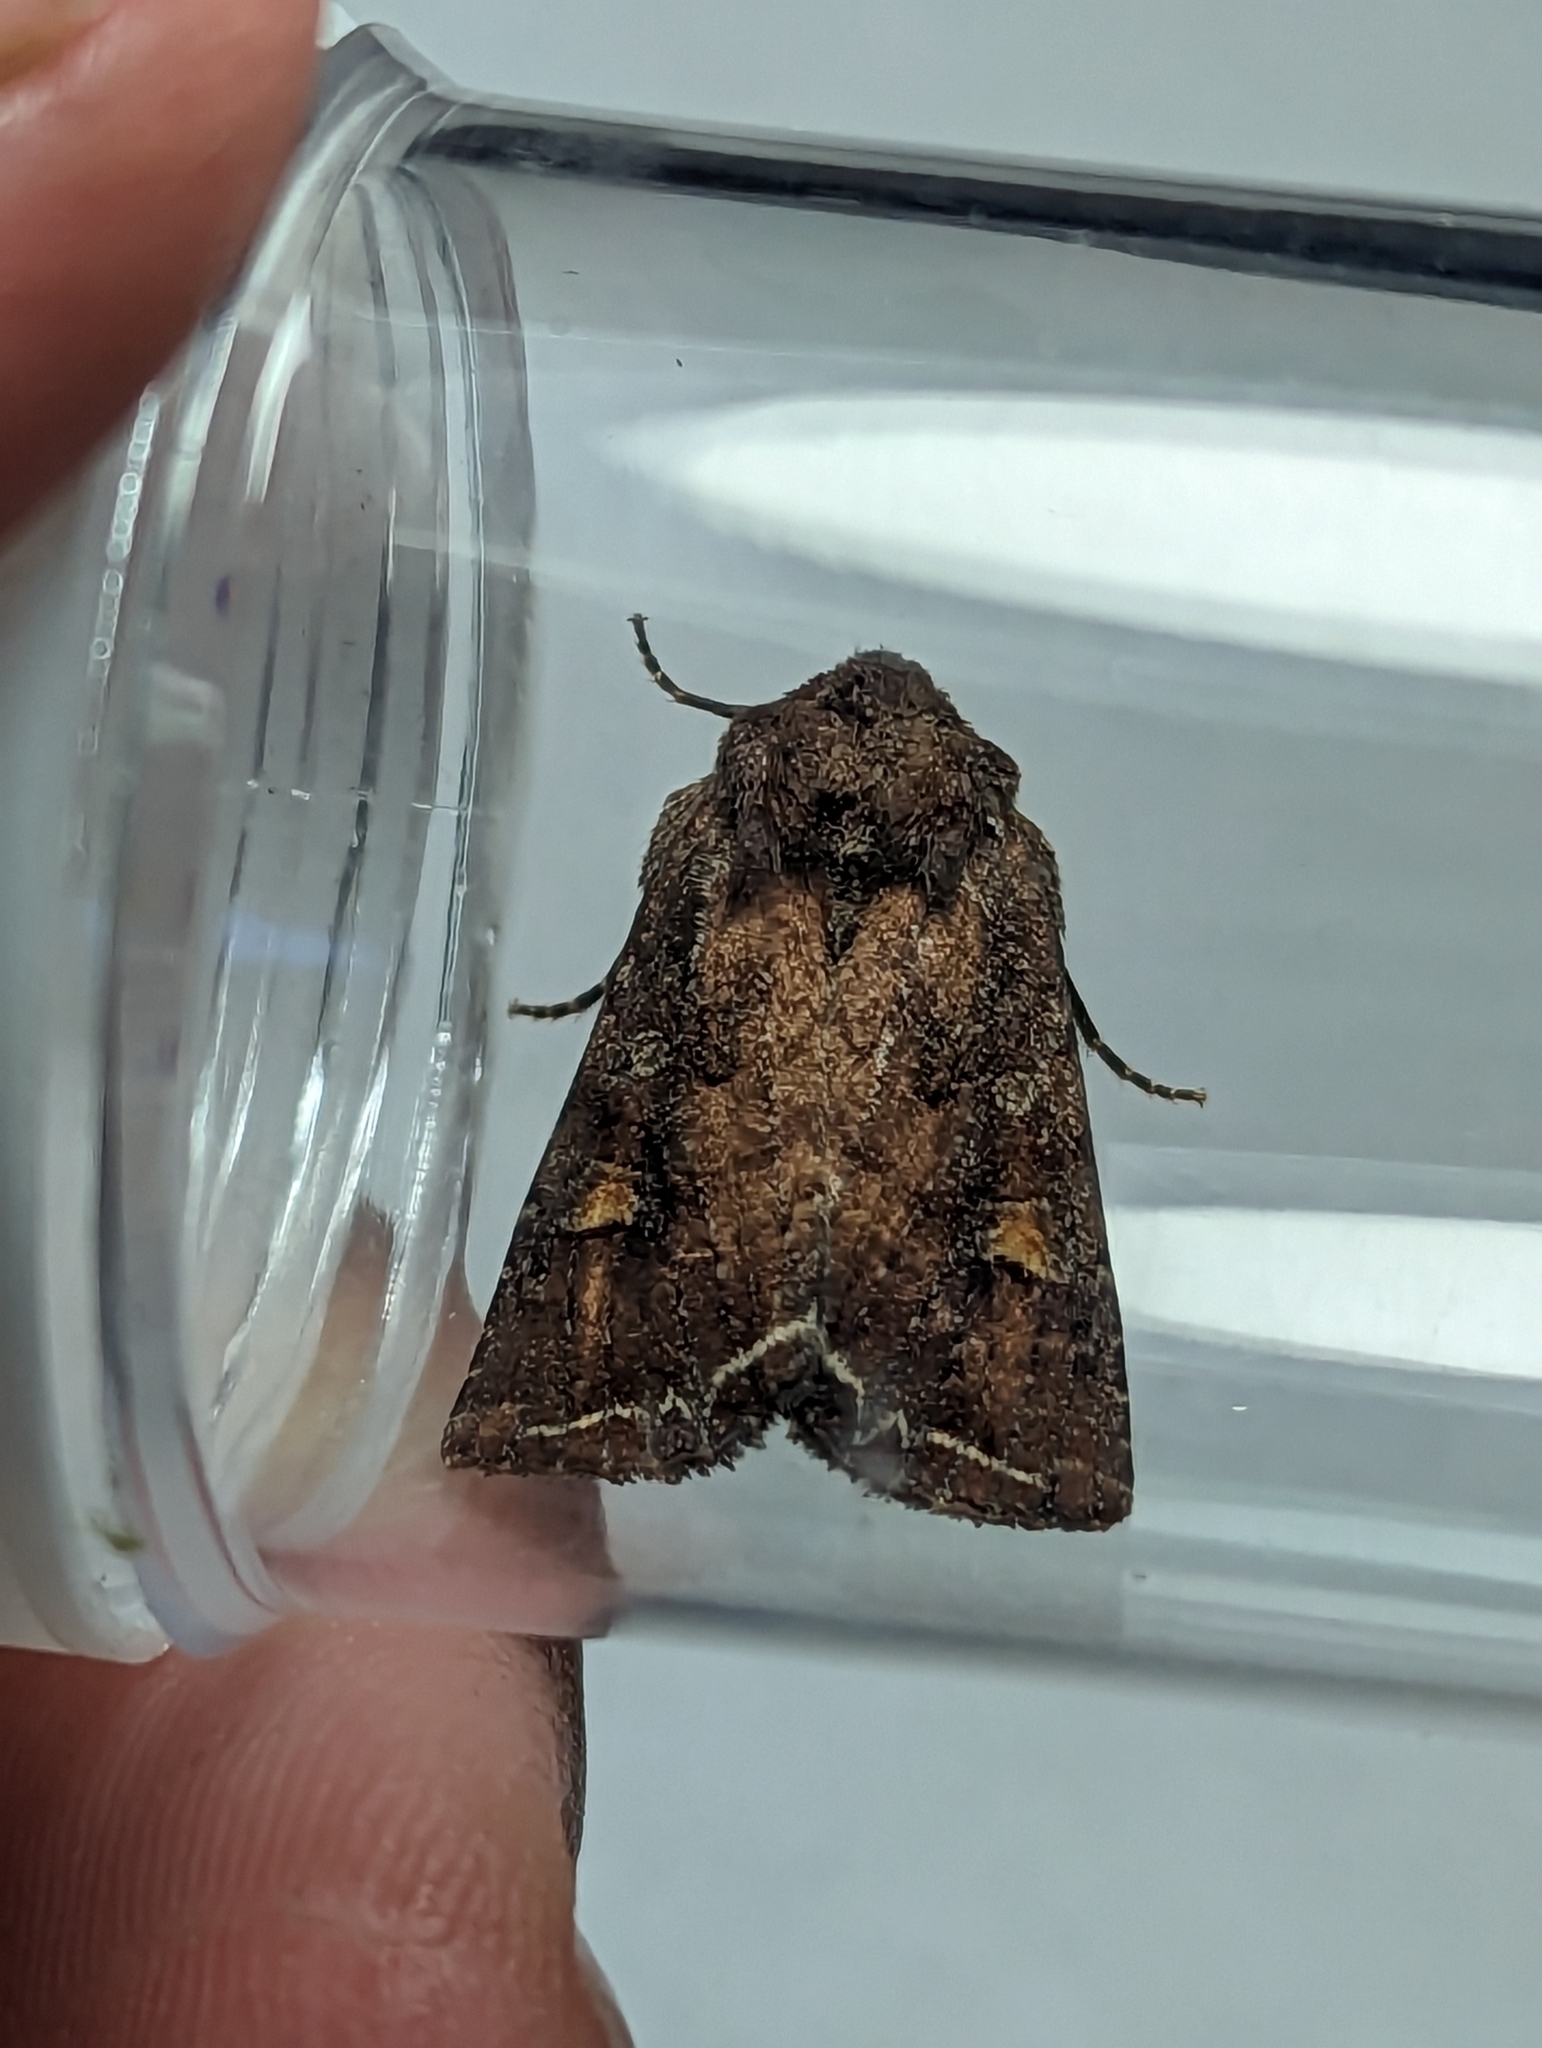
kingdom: Animalia
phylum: Arthropoda
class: Insecta
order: Lepidoptera
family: Noctuidae
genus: Lacanobia
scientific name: Lacanobia oleracea
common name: Bright-line brown-eye
